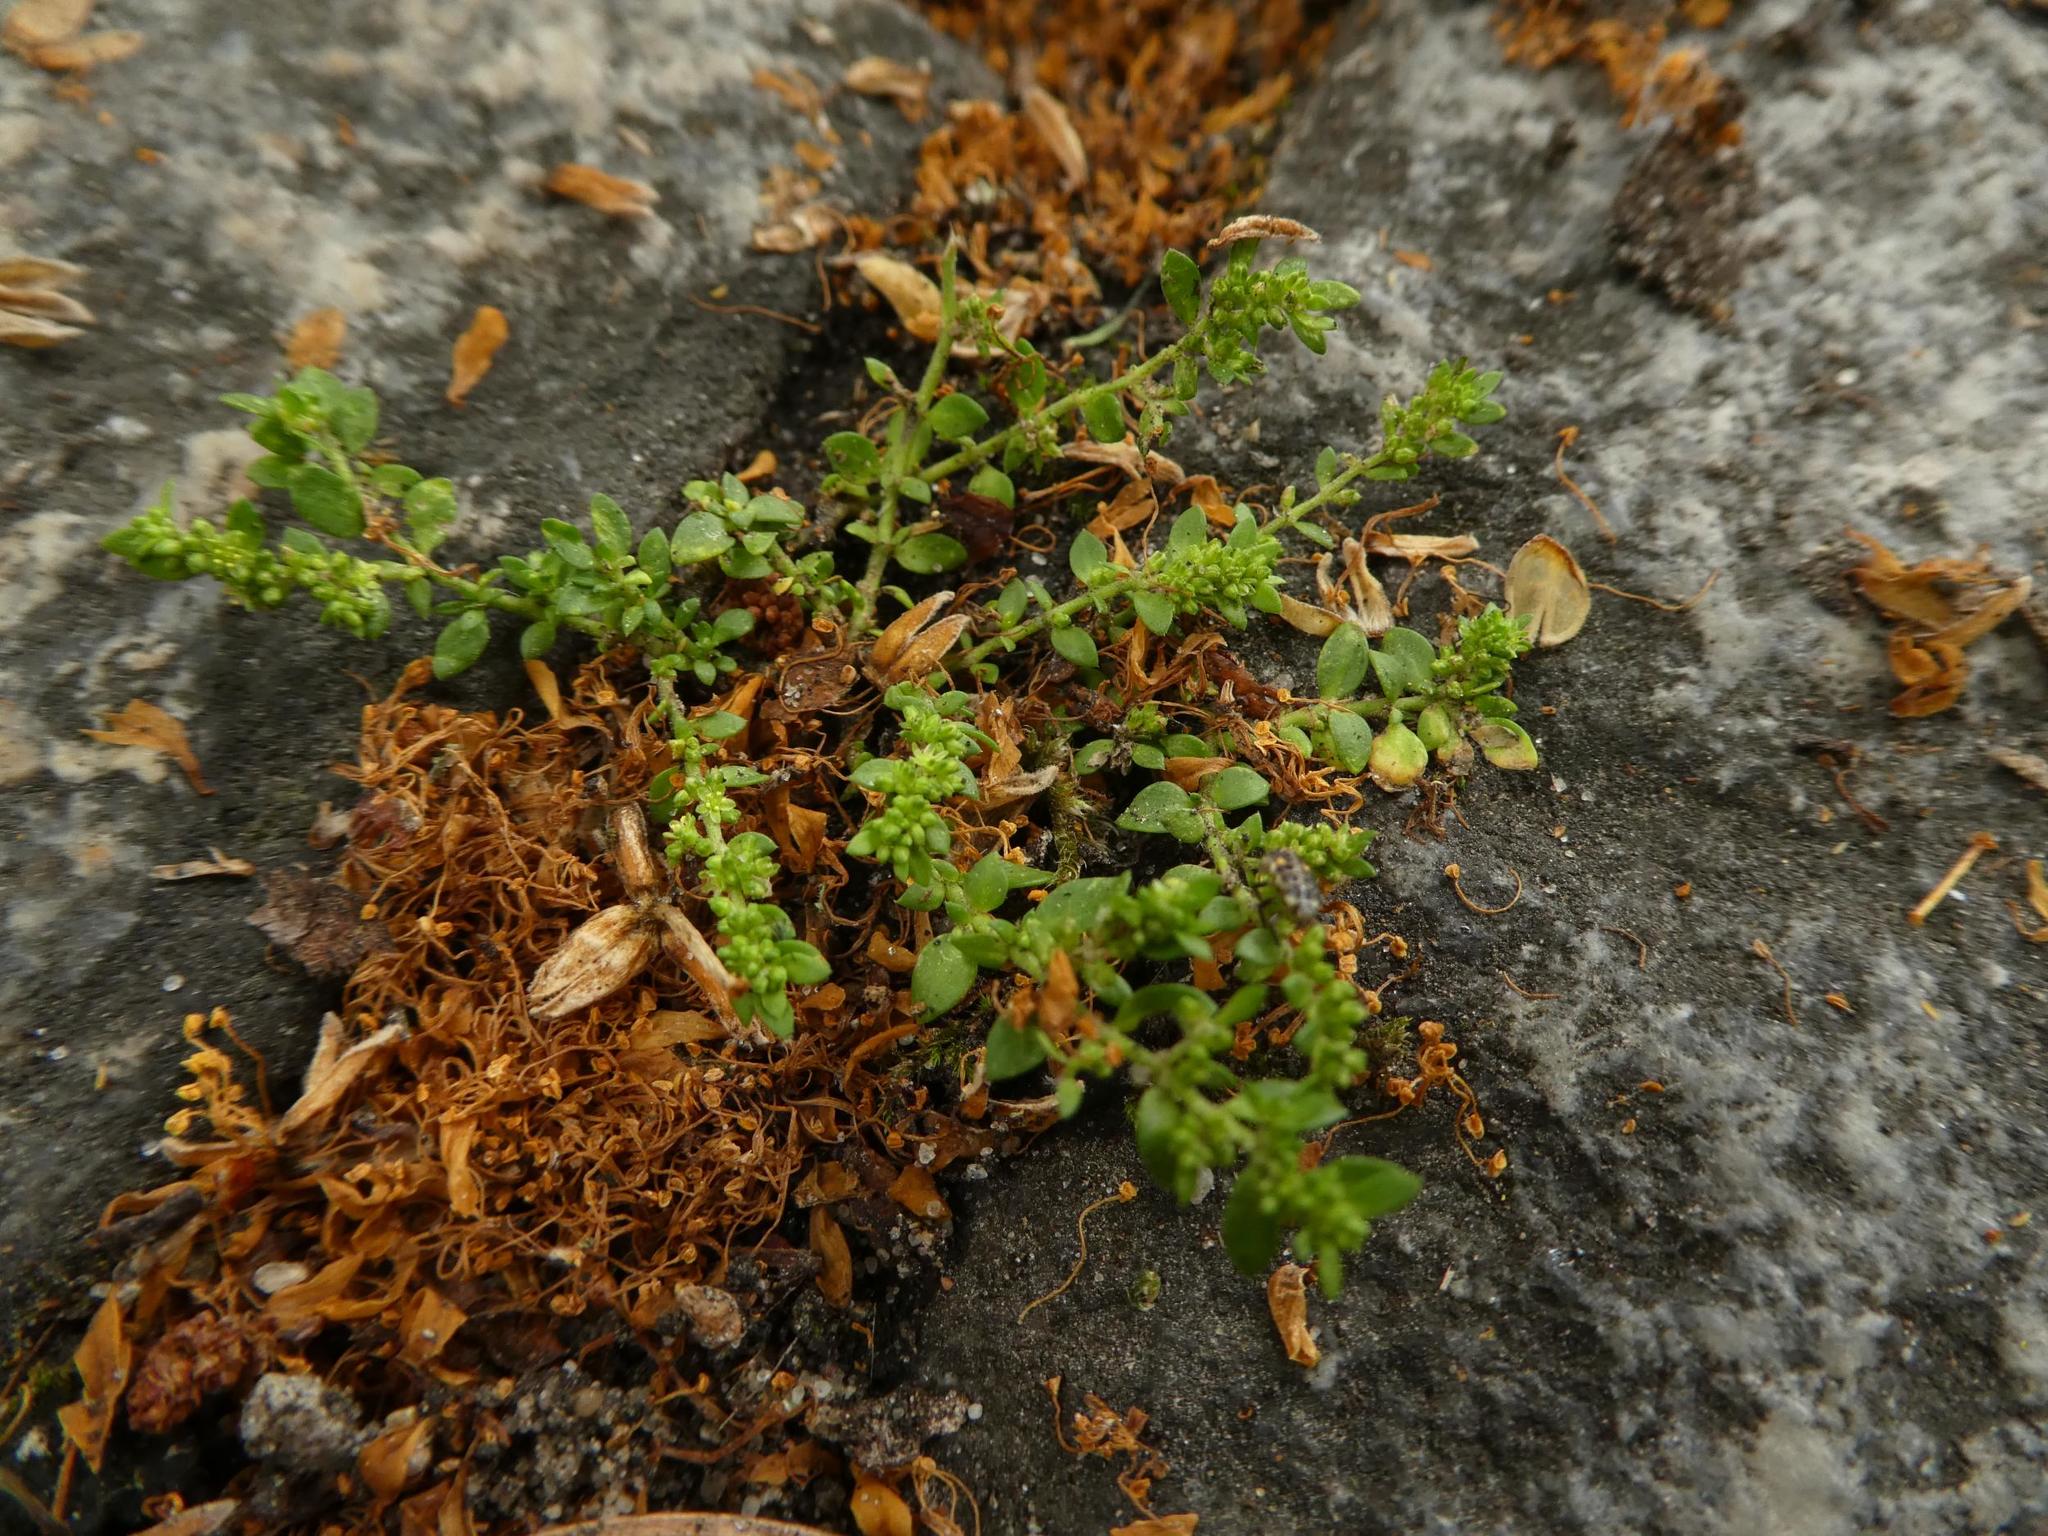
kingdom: Plantae
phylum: Tracheophyta
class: Magnoliopsida
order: Caryophyllales
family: Caryophyllaceae
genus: Herniaria
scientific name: Herniaria glabra
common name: Smooth rupturewort
